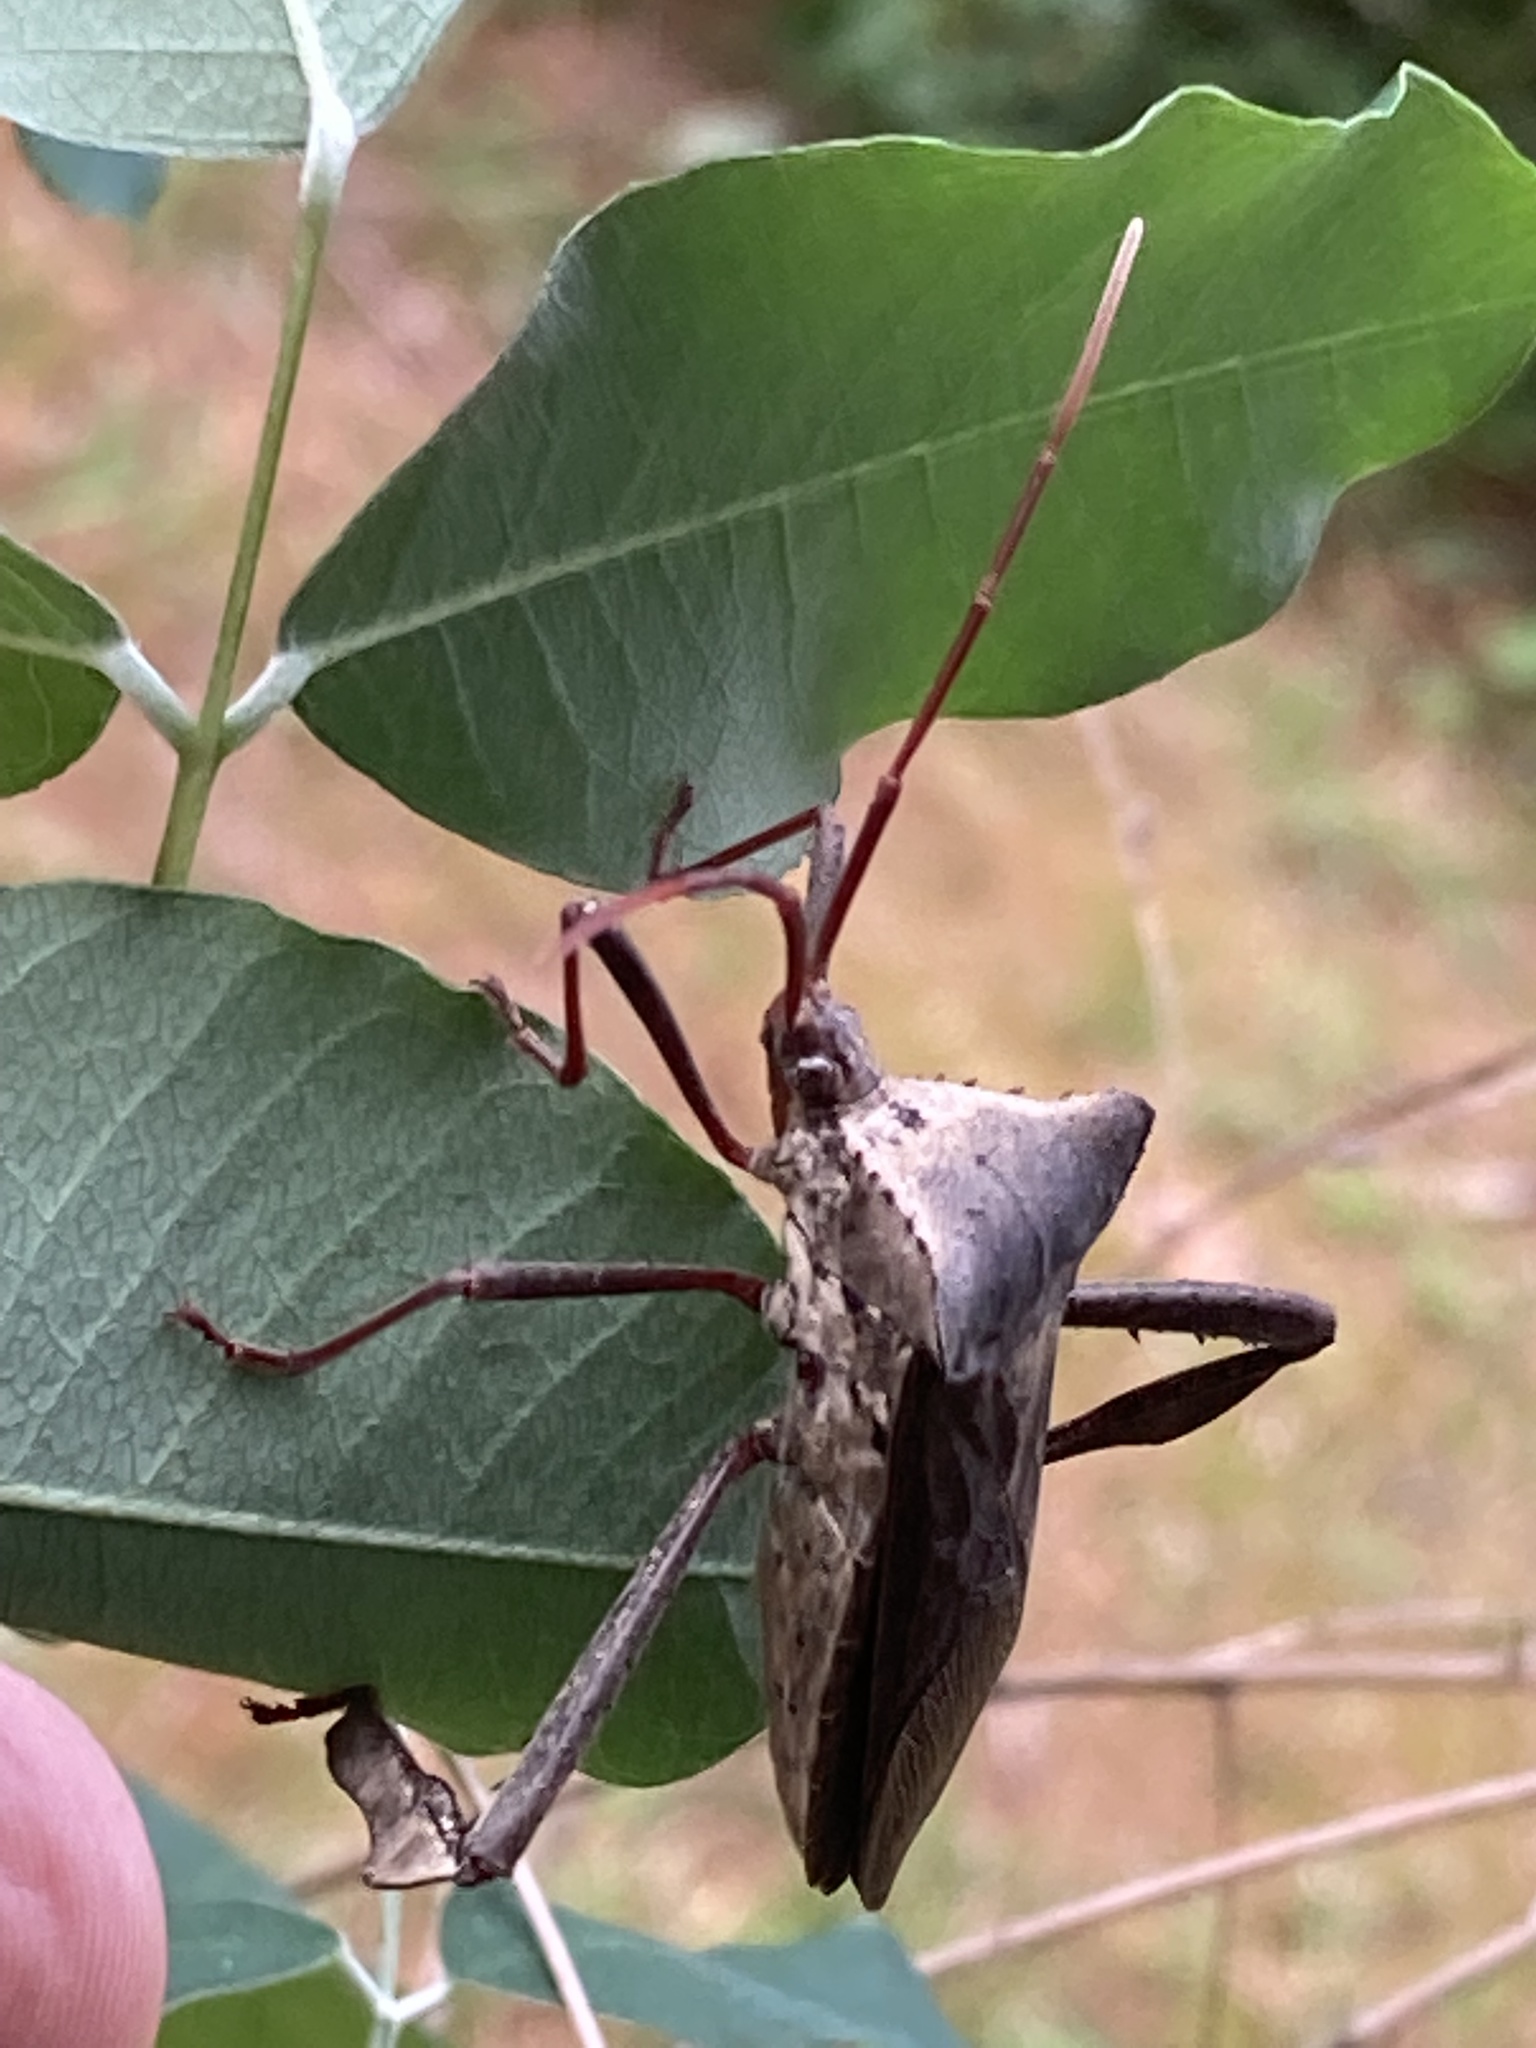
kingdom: Animalia
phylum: Arthropoda
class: Insecta
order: Hemiptera
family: Coreidae
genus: Acanthocephala
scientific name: Acanthocephala declivis
